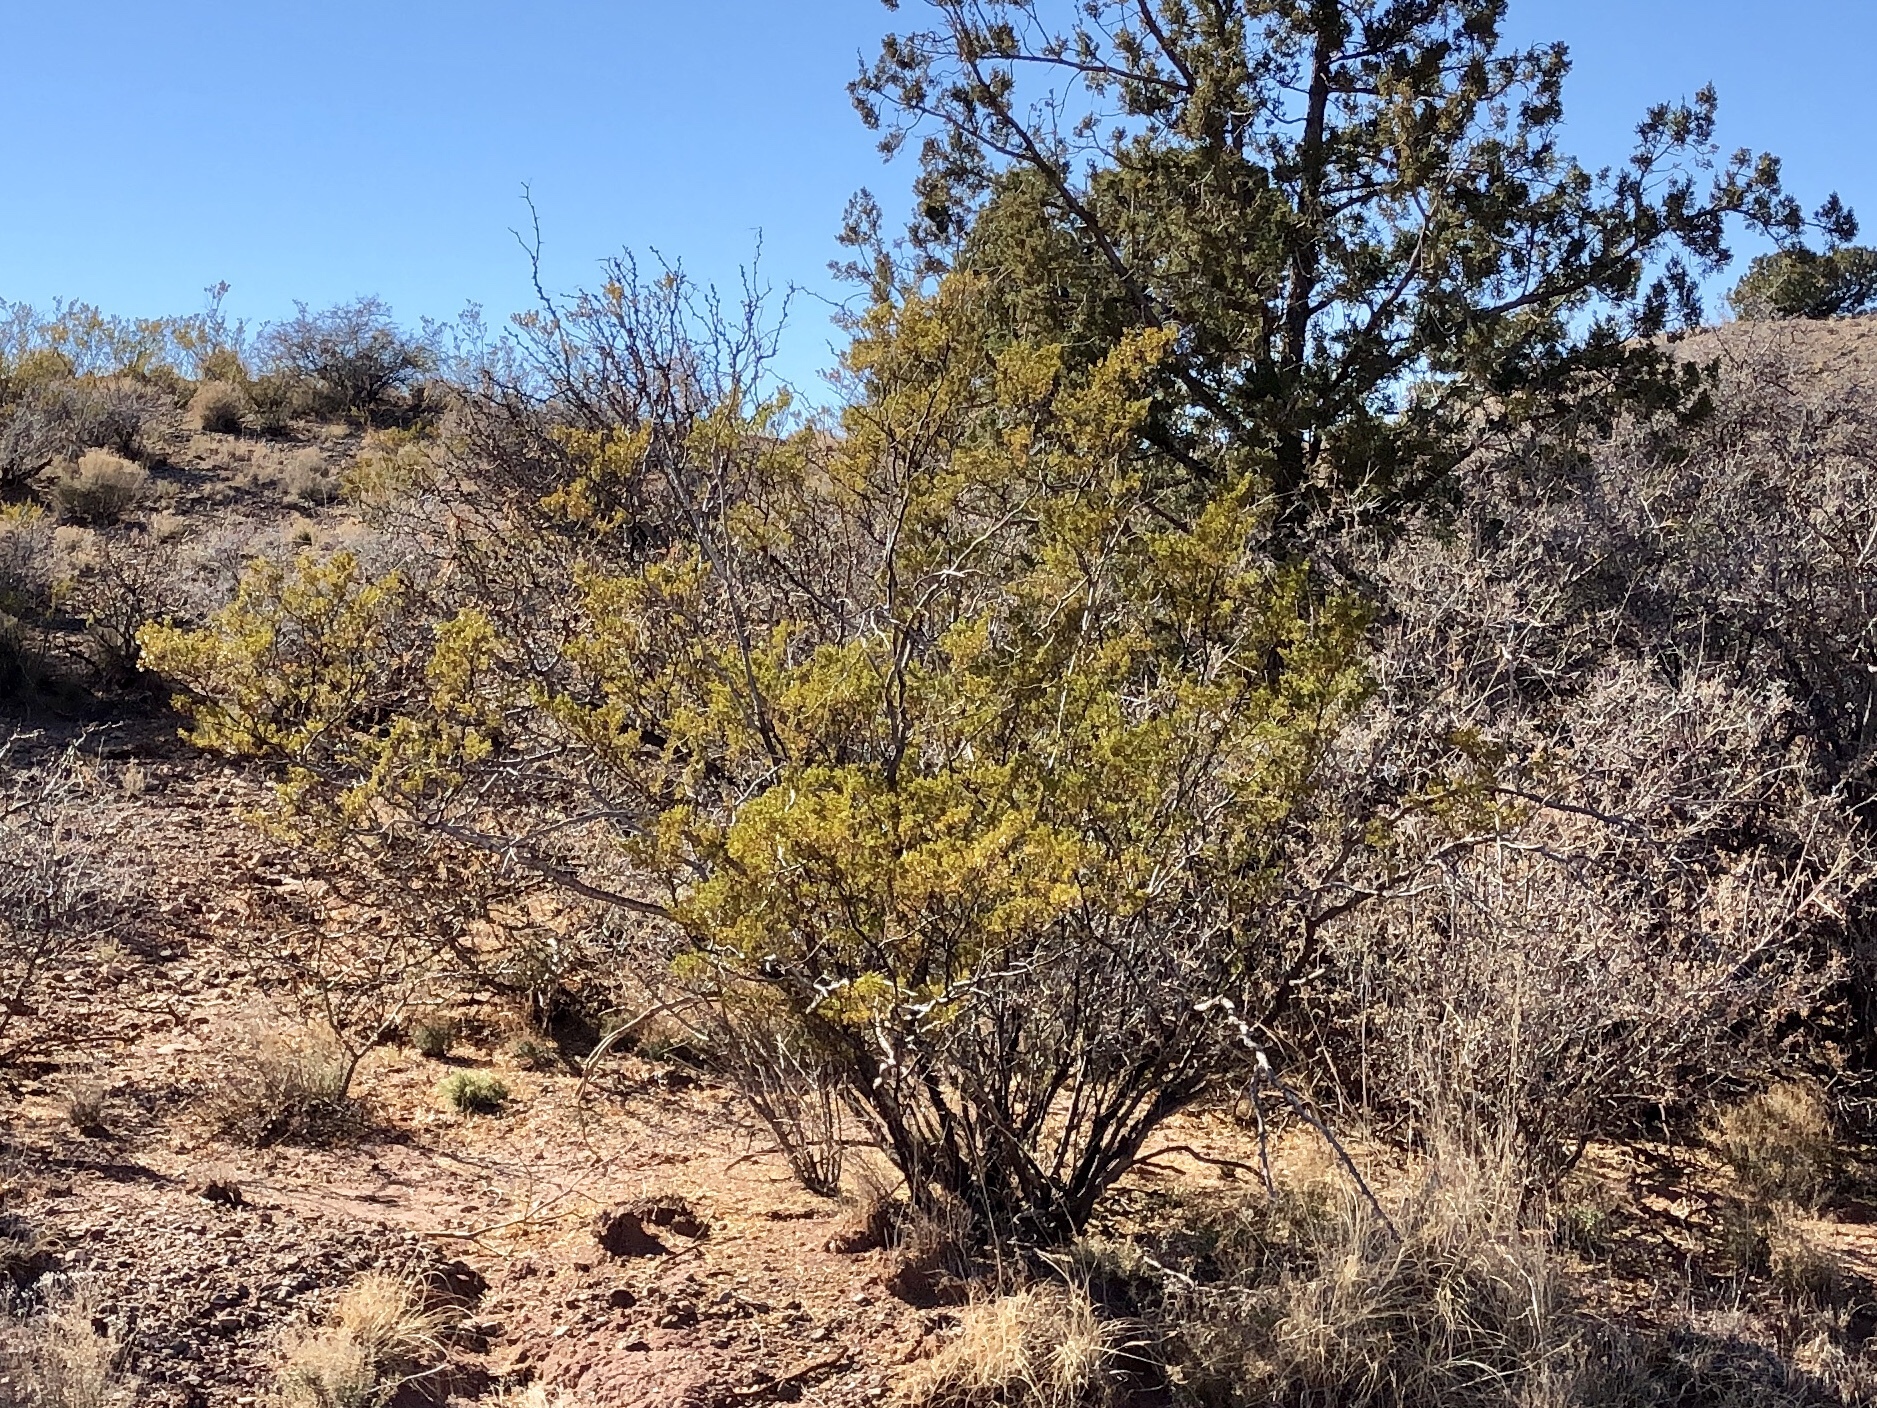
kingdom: Plantae
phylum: Tracheophyta
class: Magnoliopsida
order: Zygophyllales
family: Zygophyllaceae
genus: Larrea
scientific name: Larrea tridentata
